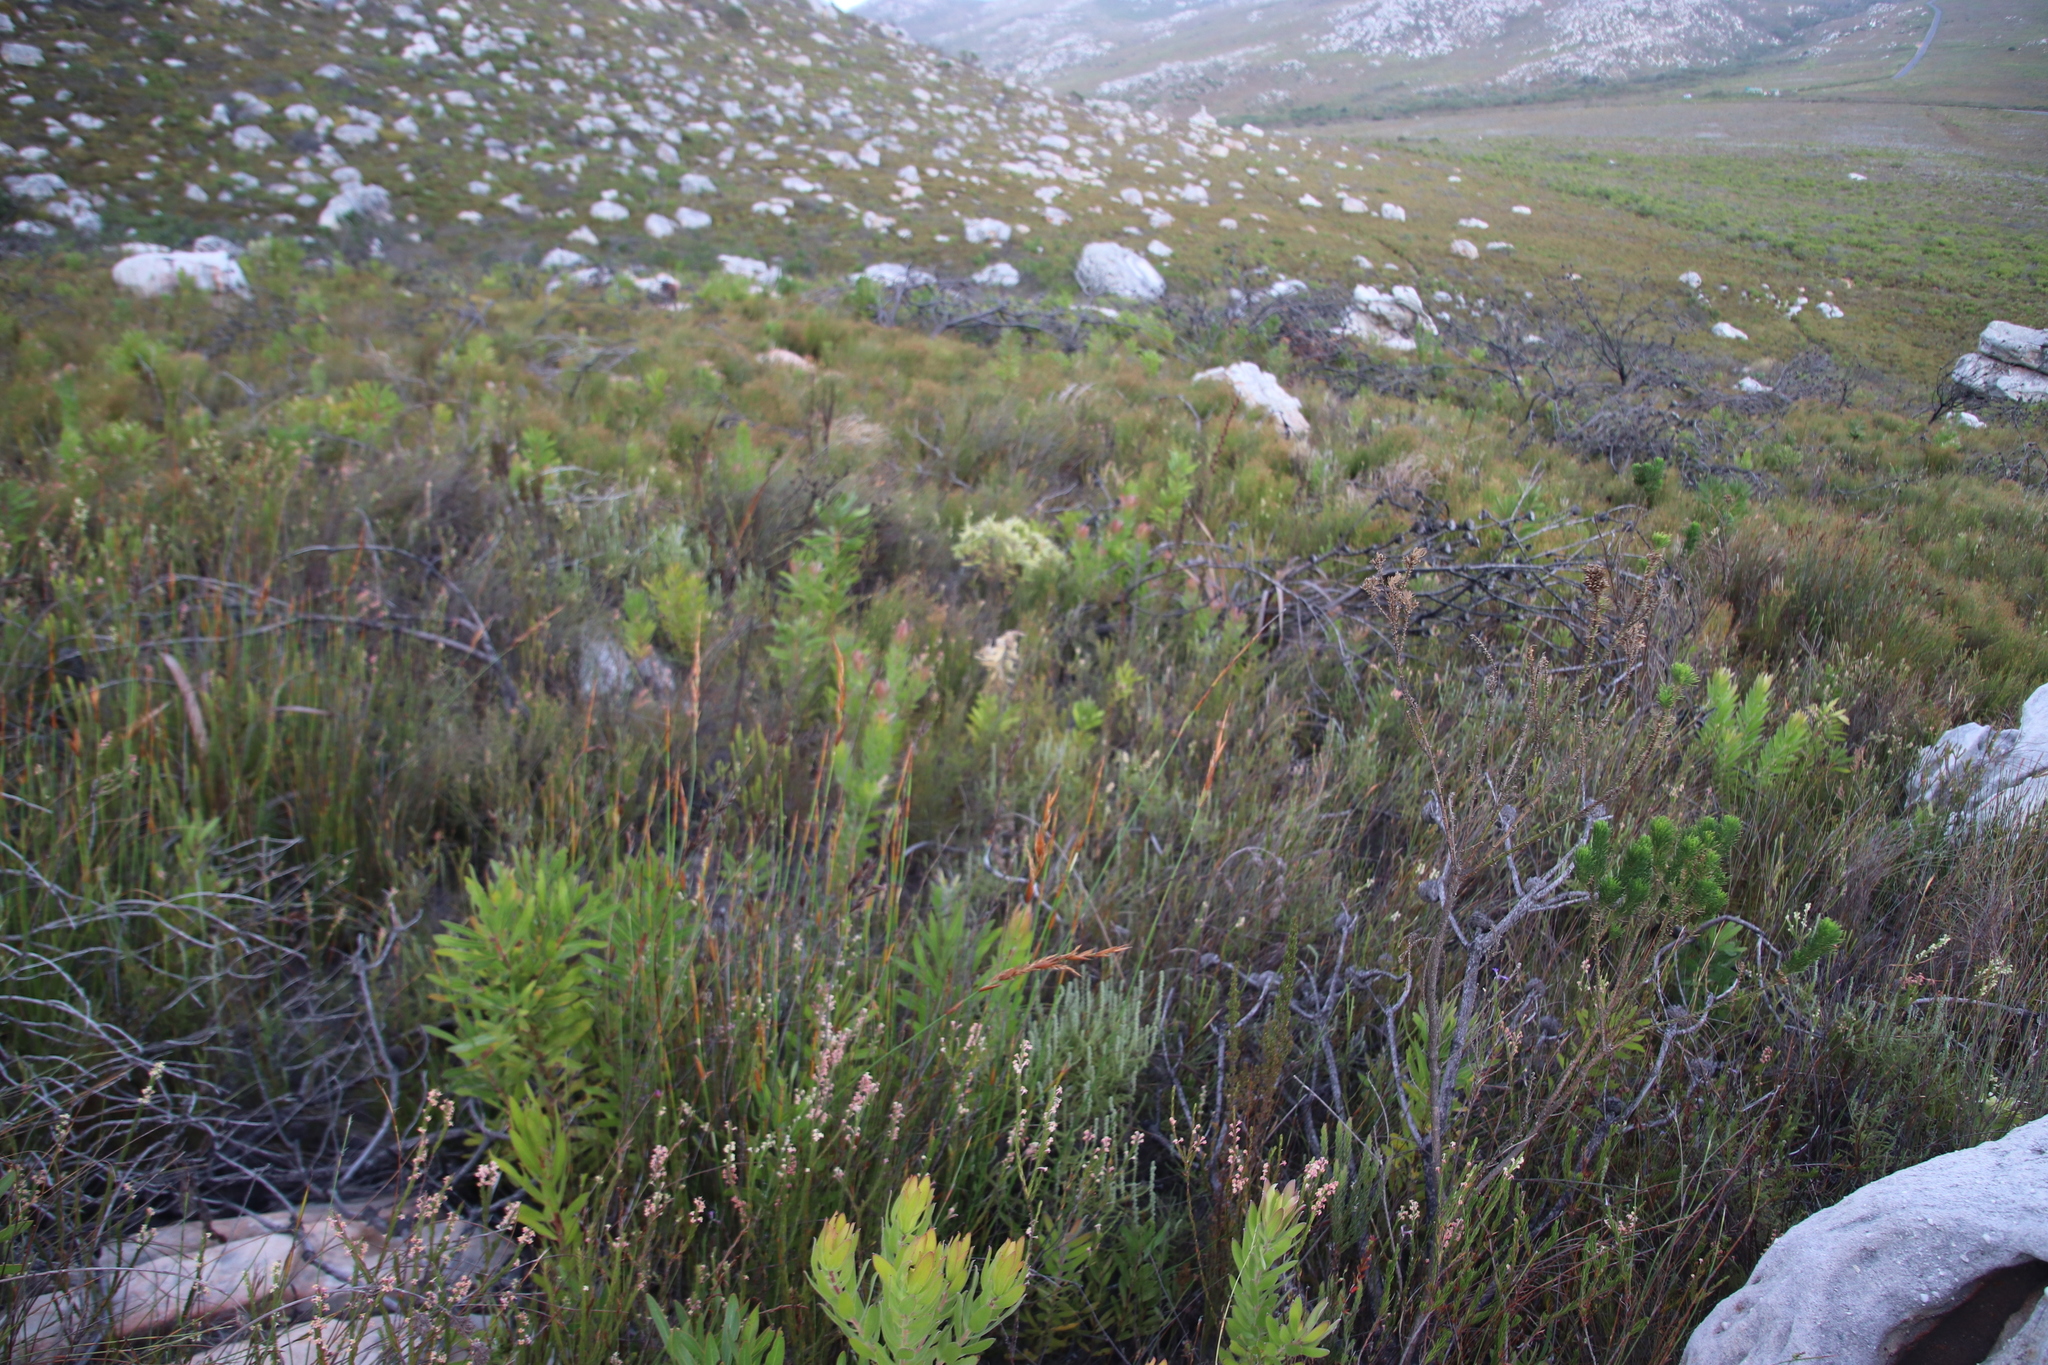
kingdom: Plantae
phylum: Tracheophyta
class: Magnoliopsida
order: Proteales
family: Proteaceae
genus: Protea
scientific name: Protea lepidocarpodendron
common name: Black-bearded protea
